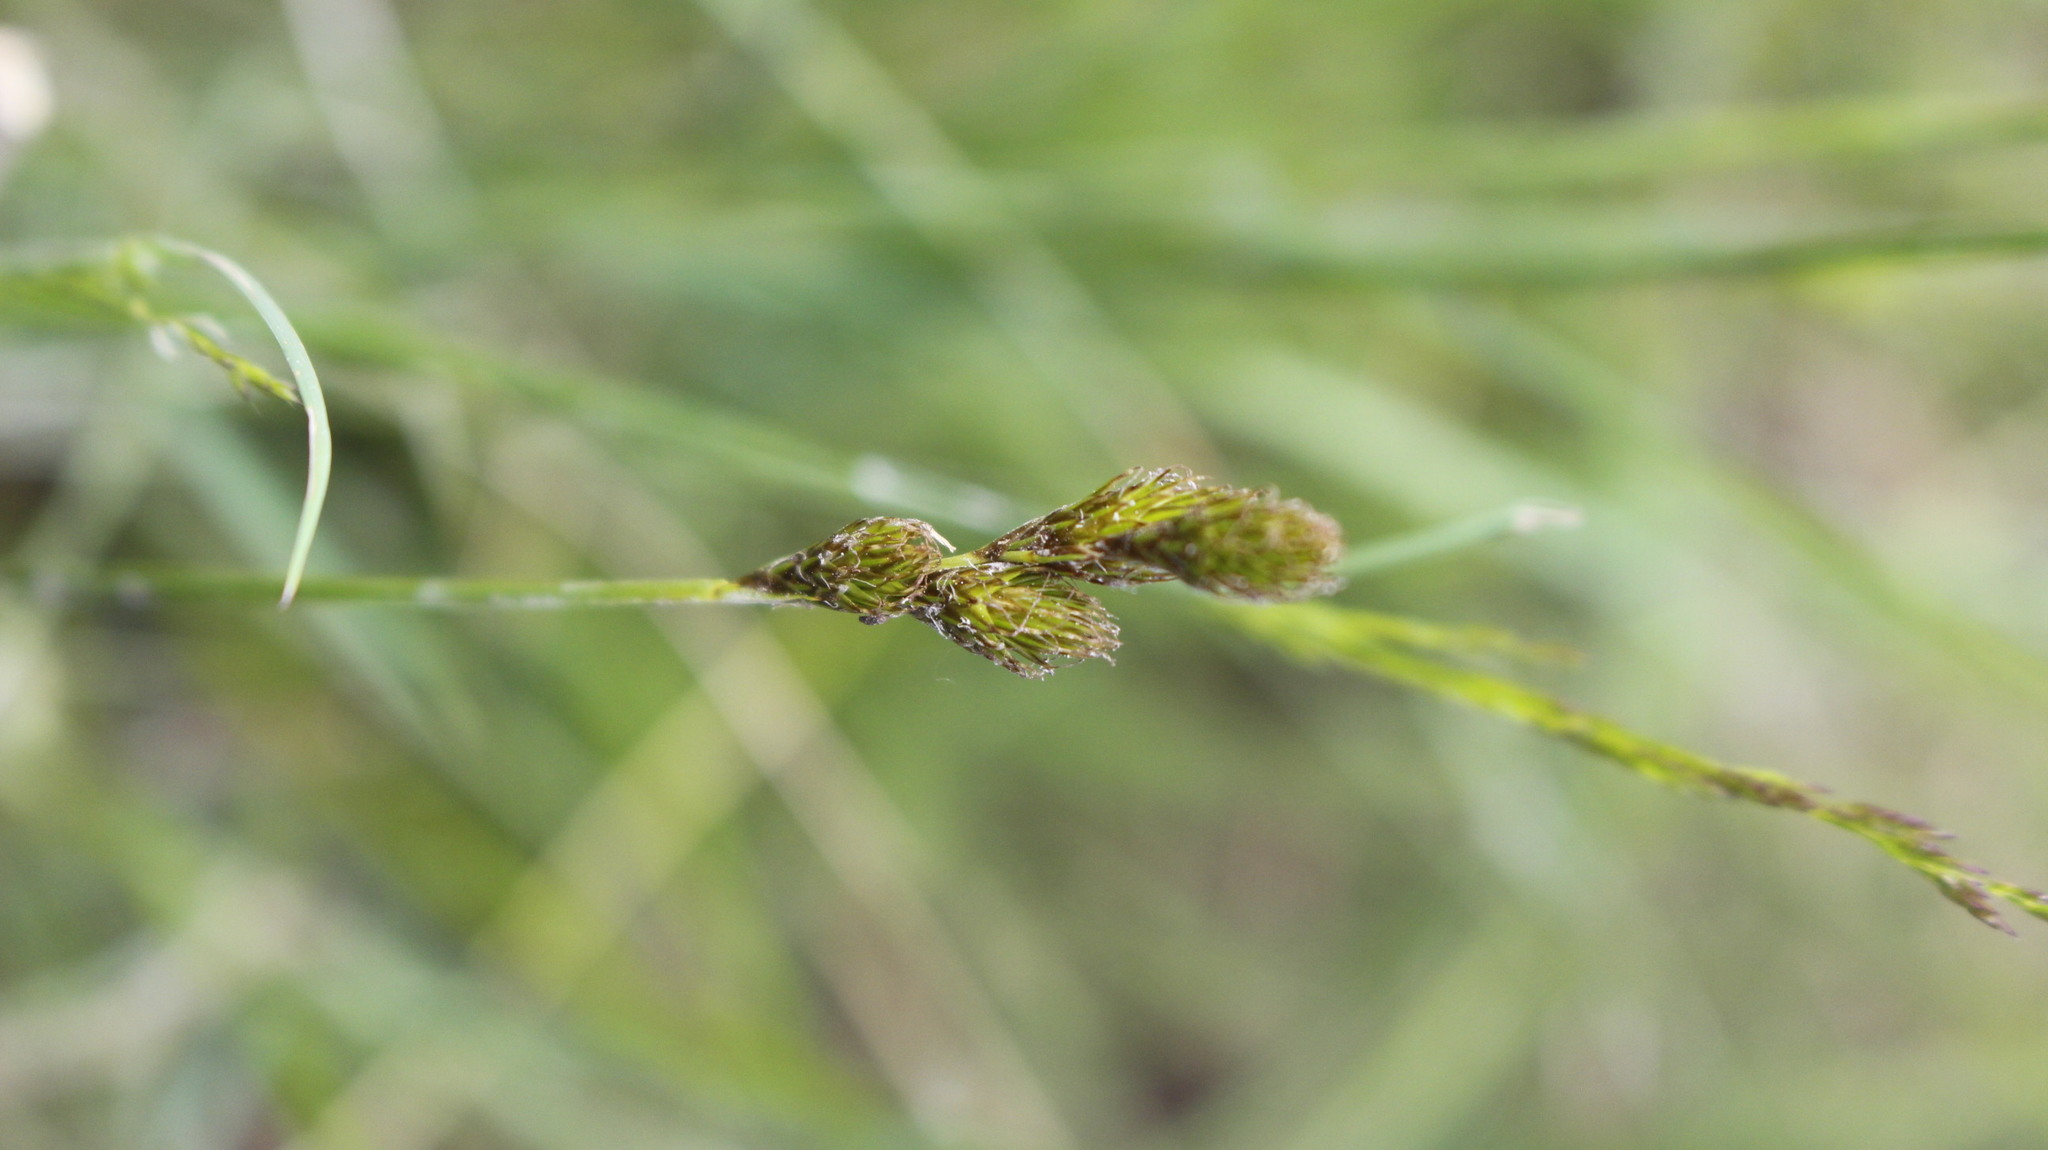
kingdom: Plantae
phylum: Tracheophyta
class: Liliopsida
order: Poales
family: Cyperaceae
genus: Carex
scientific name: Carex leporina
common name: Oval sedge
